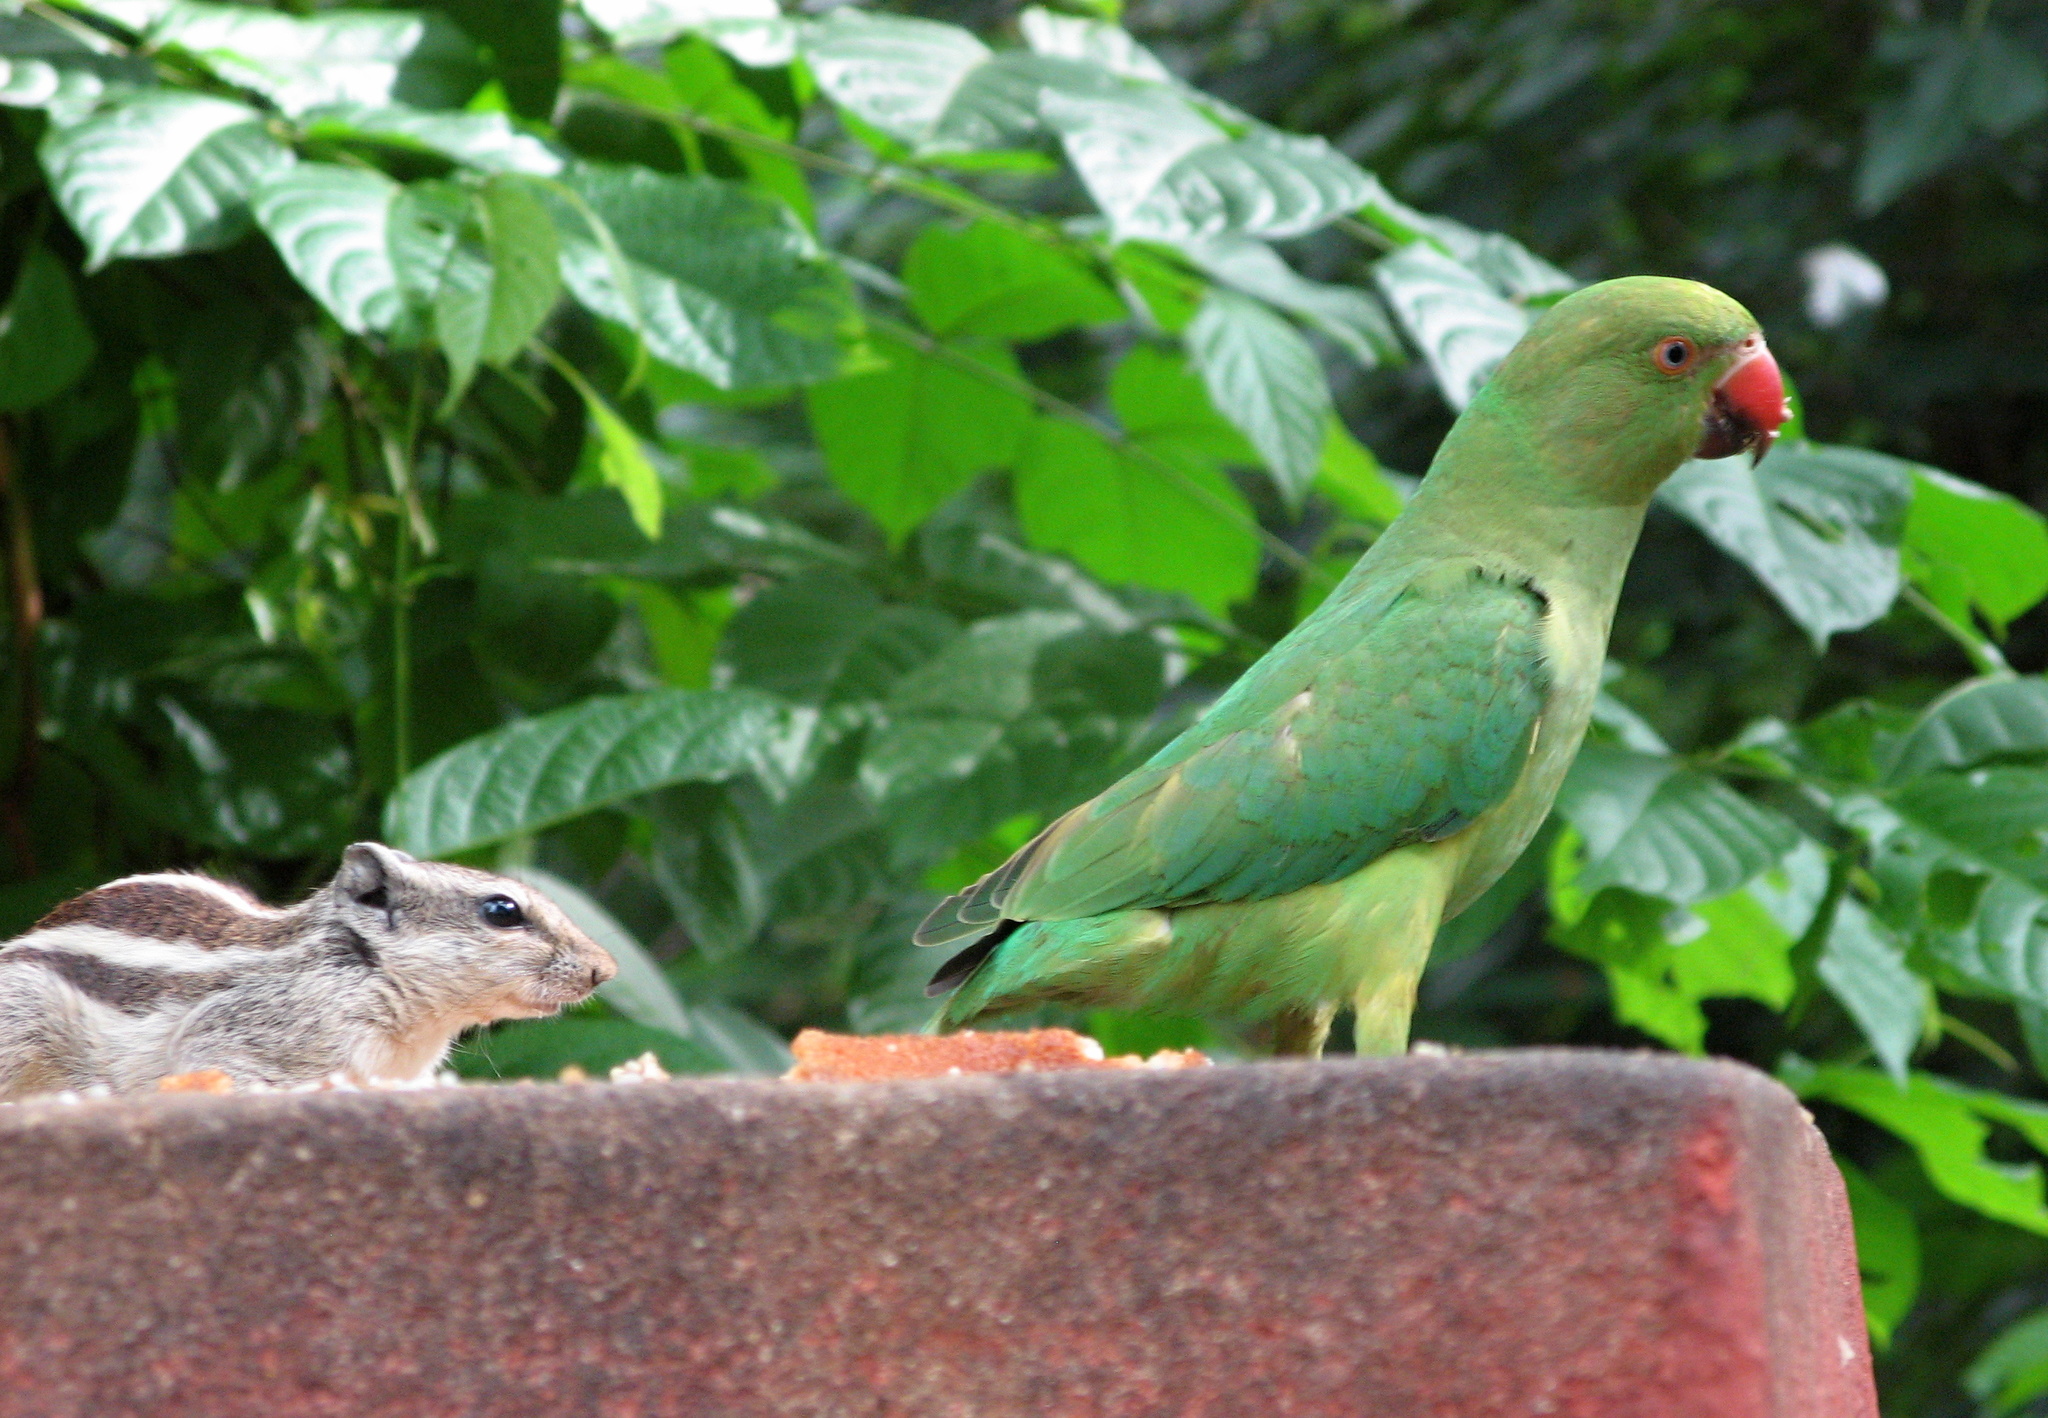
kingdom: Animalia
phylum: Chordata
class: Aves
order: Psittaciformes
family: Psittacidae
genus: Psittacula
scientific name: Psittacula krameri
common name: Rose-ringed parakeet
